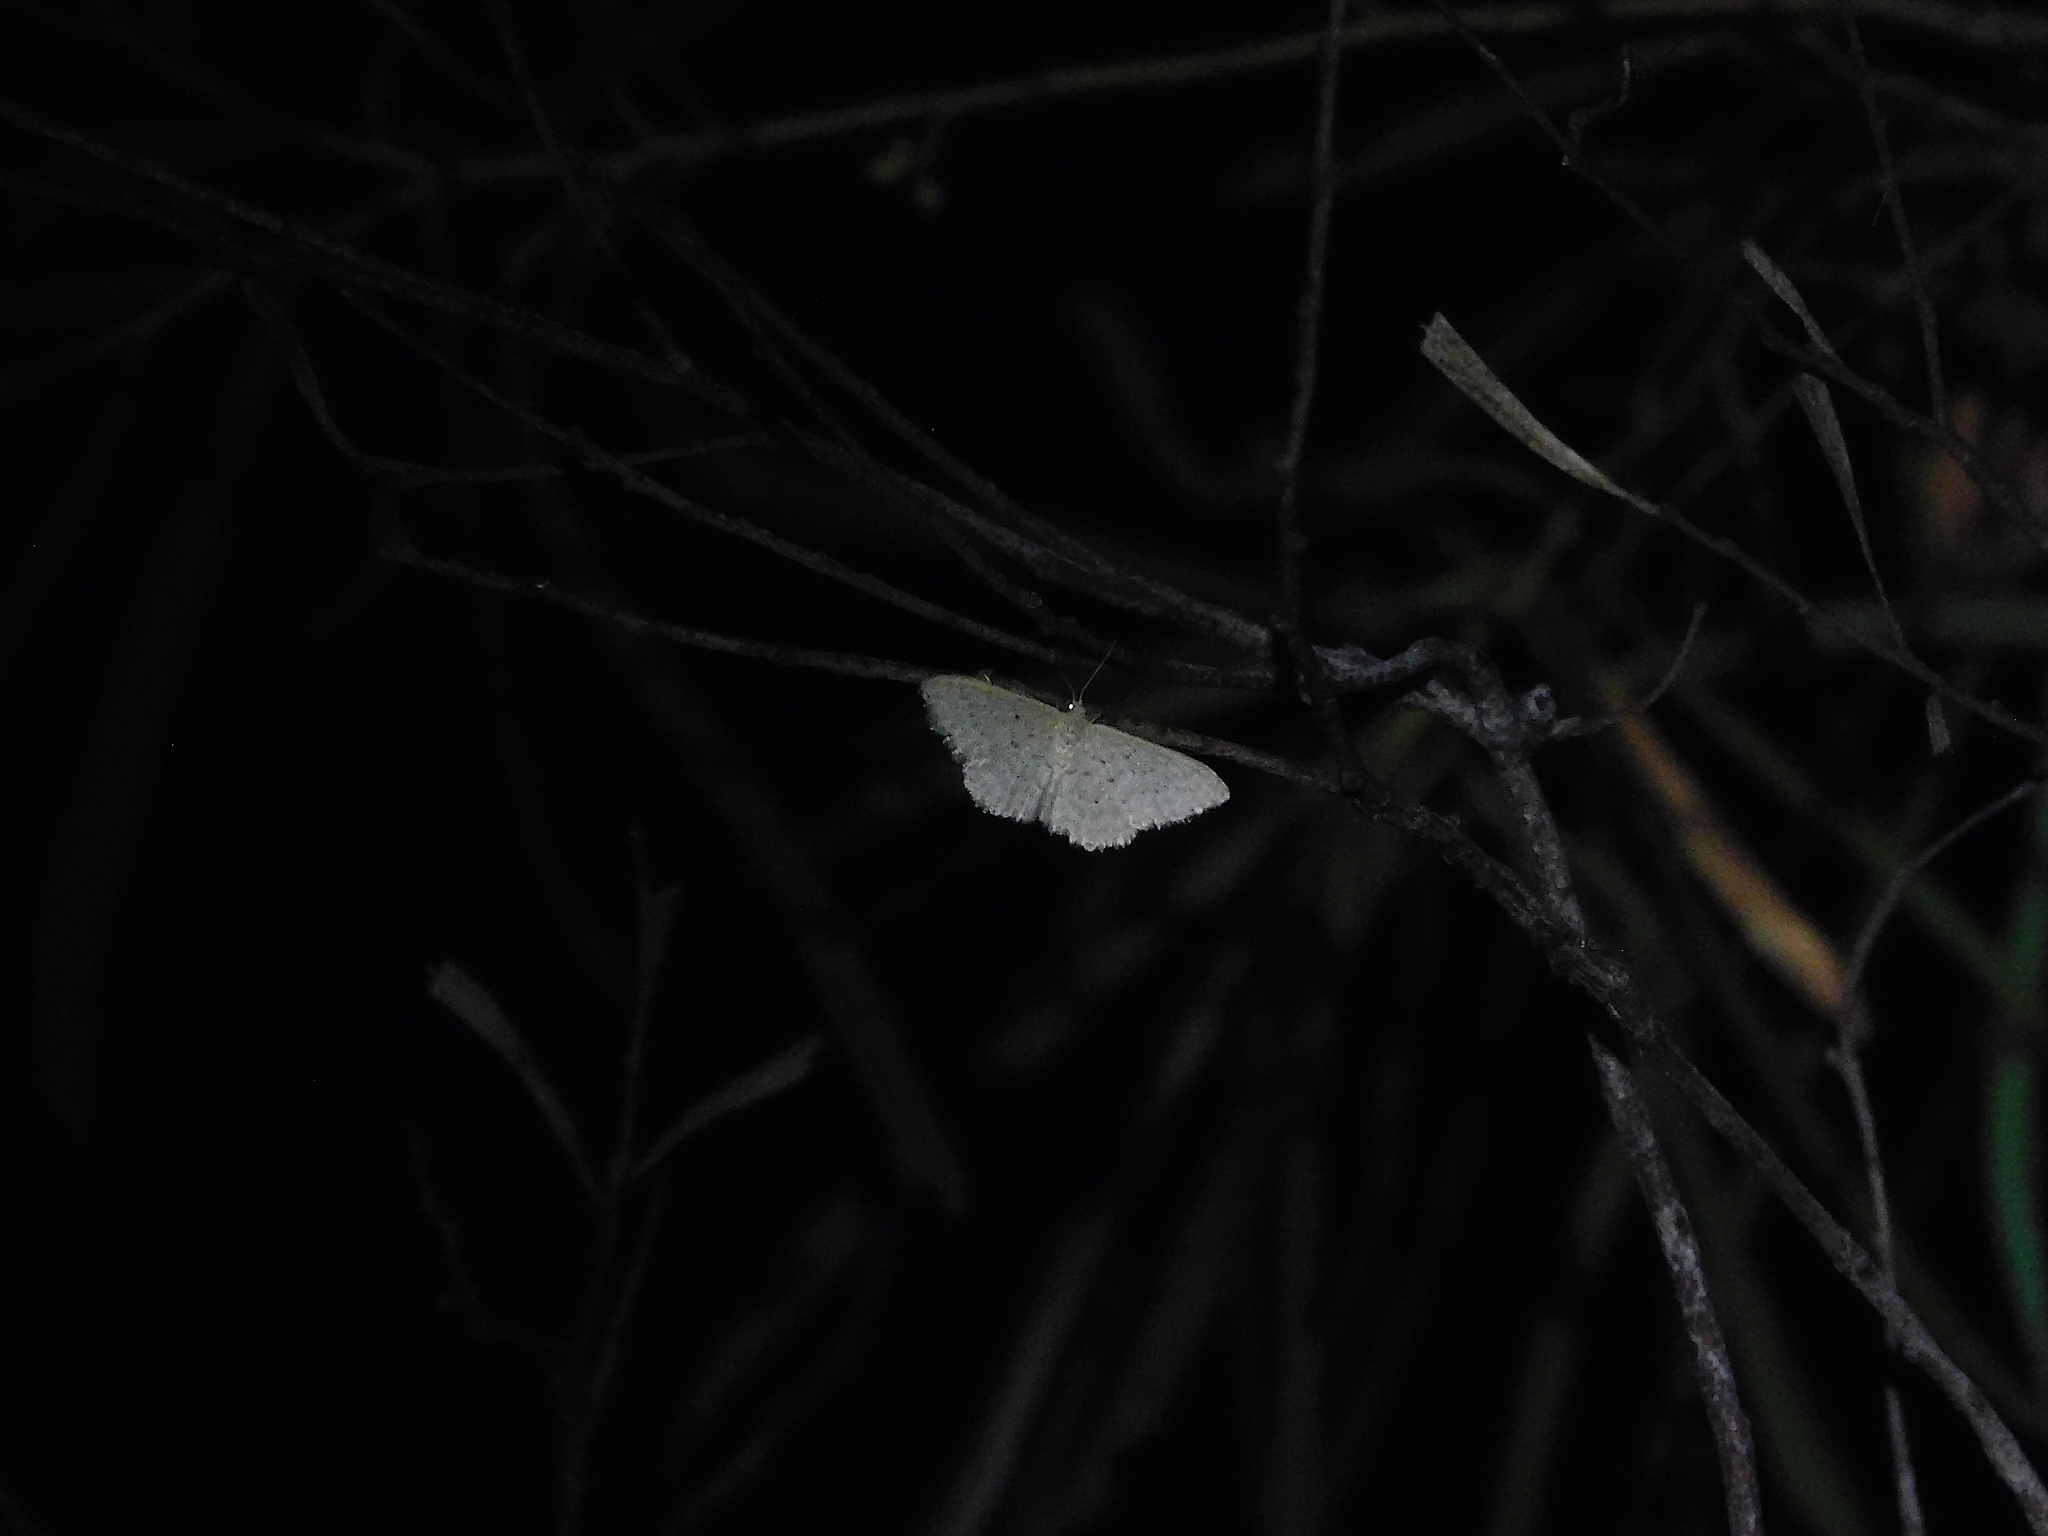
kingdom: Animalia
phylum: Arthropoda
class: Insecta
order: Lepidoptera
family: Geometridae
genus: Idaea
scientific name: Idaea philocosma
